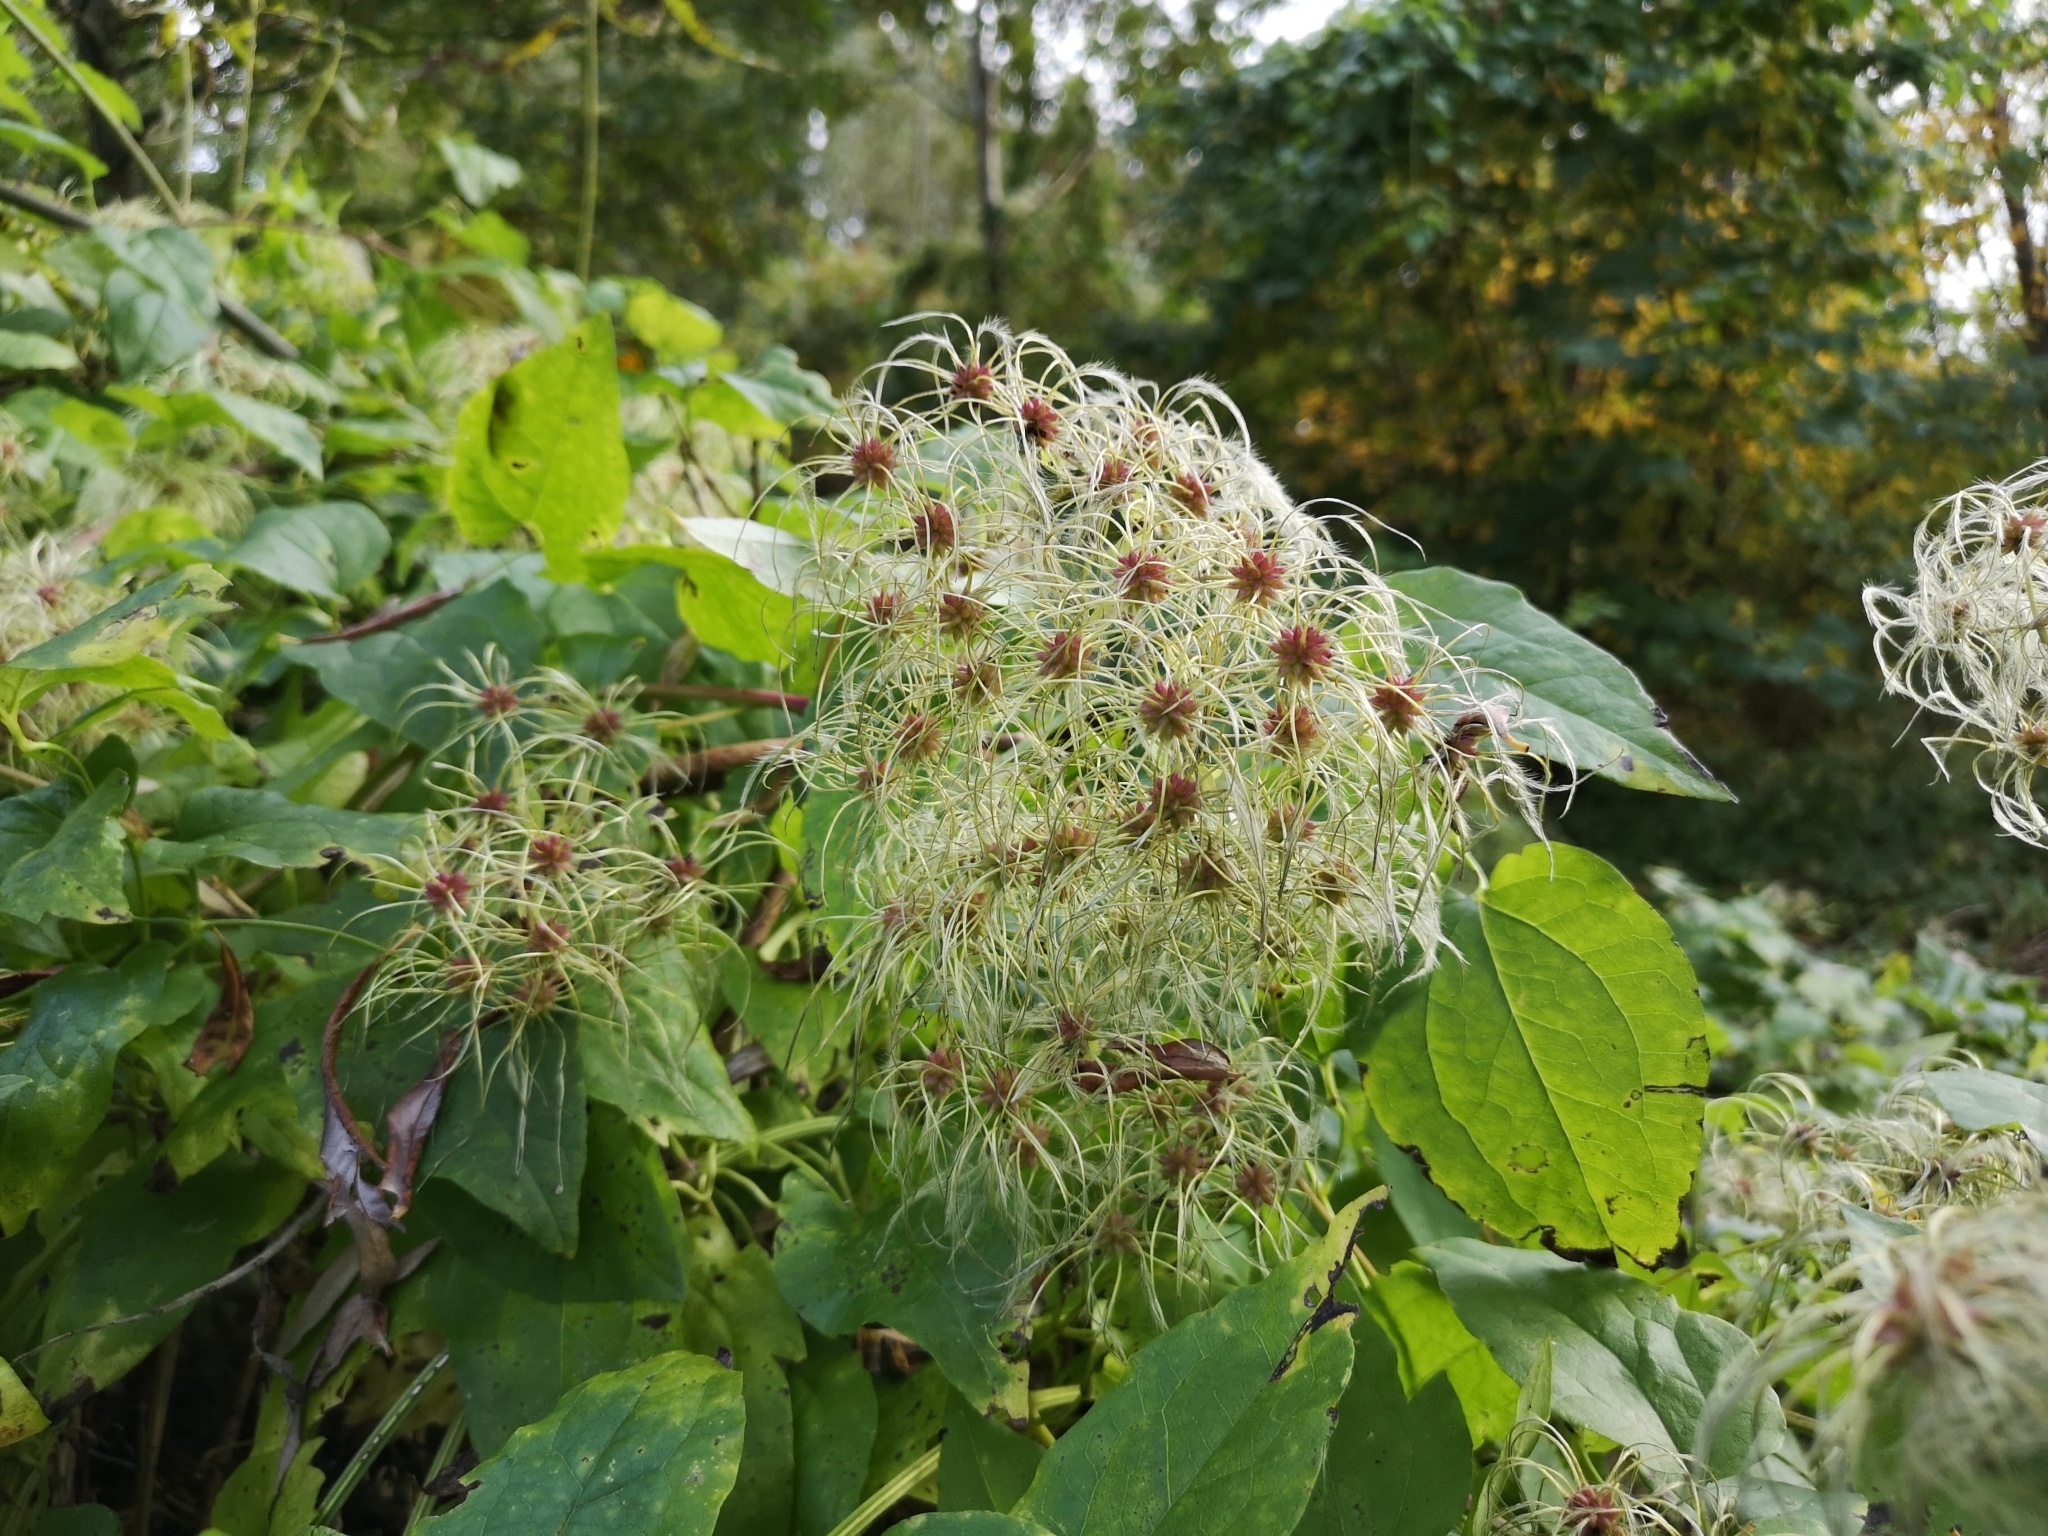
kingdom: Plantae
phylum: Tracheophyta
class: Magnoliopsida
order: Ranunculales
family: Ranunculaceae
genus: Clematis
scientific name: Clematis vitalba
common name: Evergreen clematis
